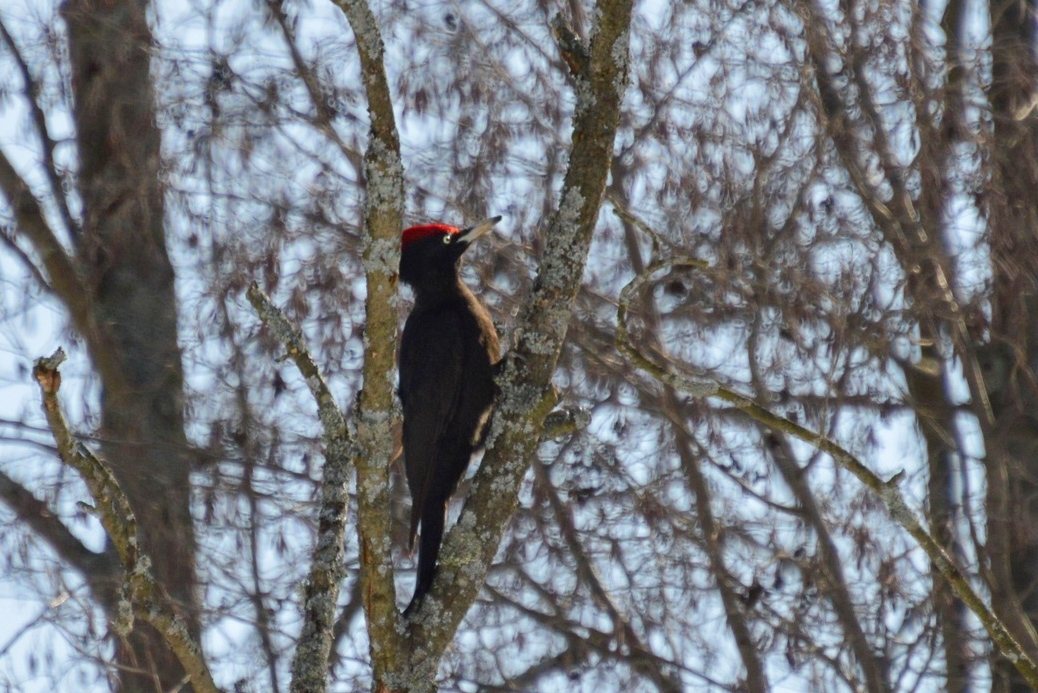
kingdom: Animalia
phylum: Chordata
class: Aves
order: Piciformes
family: Picidae
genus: Dryocopus
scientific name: Dryocopus martius
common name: Black woodpecker
